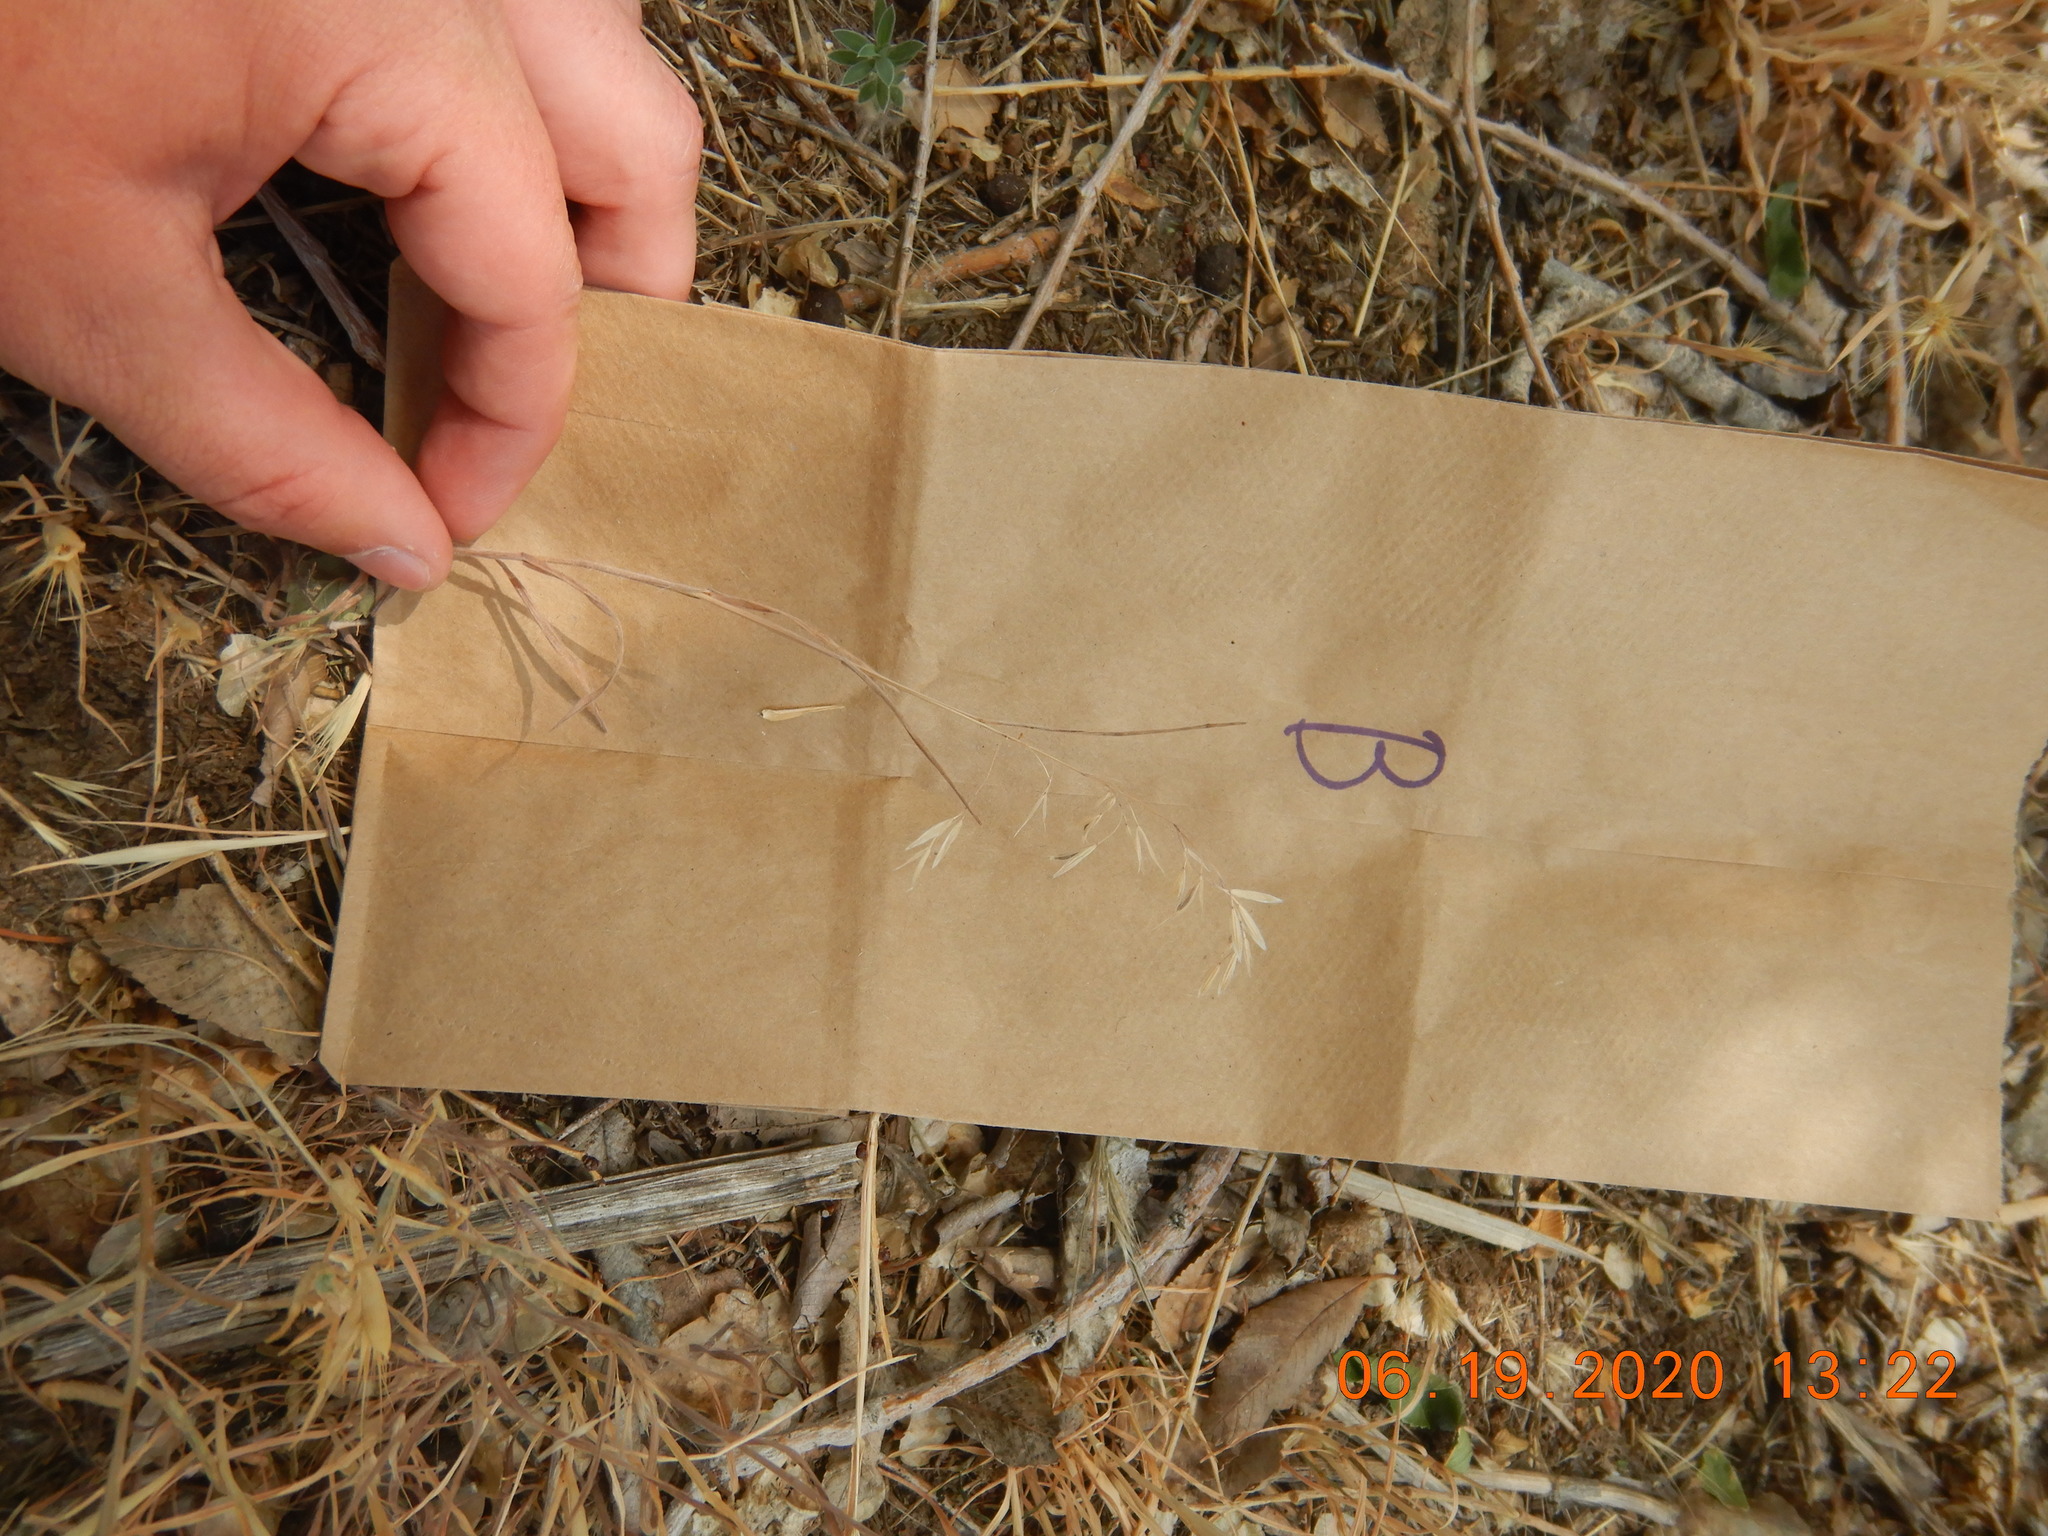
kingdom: Plantae
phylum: Tracheophyta
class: Liliopsida
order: Poales
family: Poaceae
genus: Bromus
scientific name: Bromus tectorum
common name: Cheatgrass
